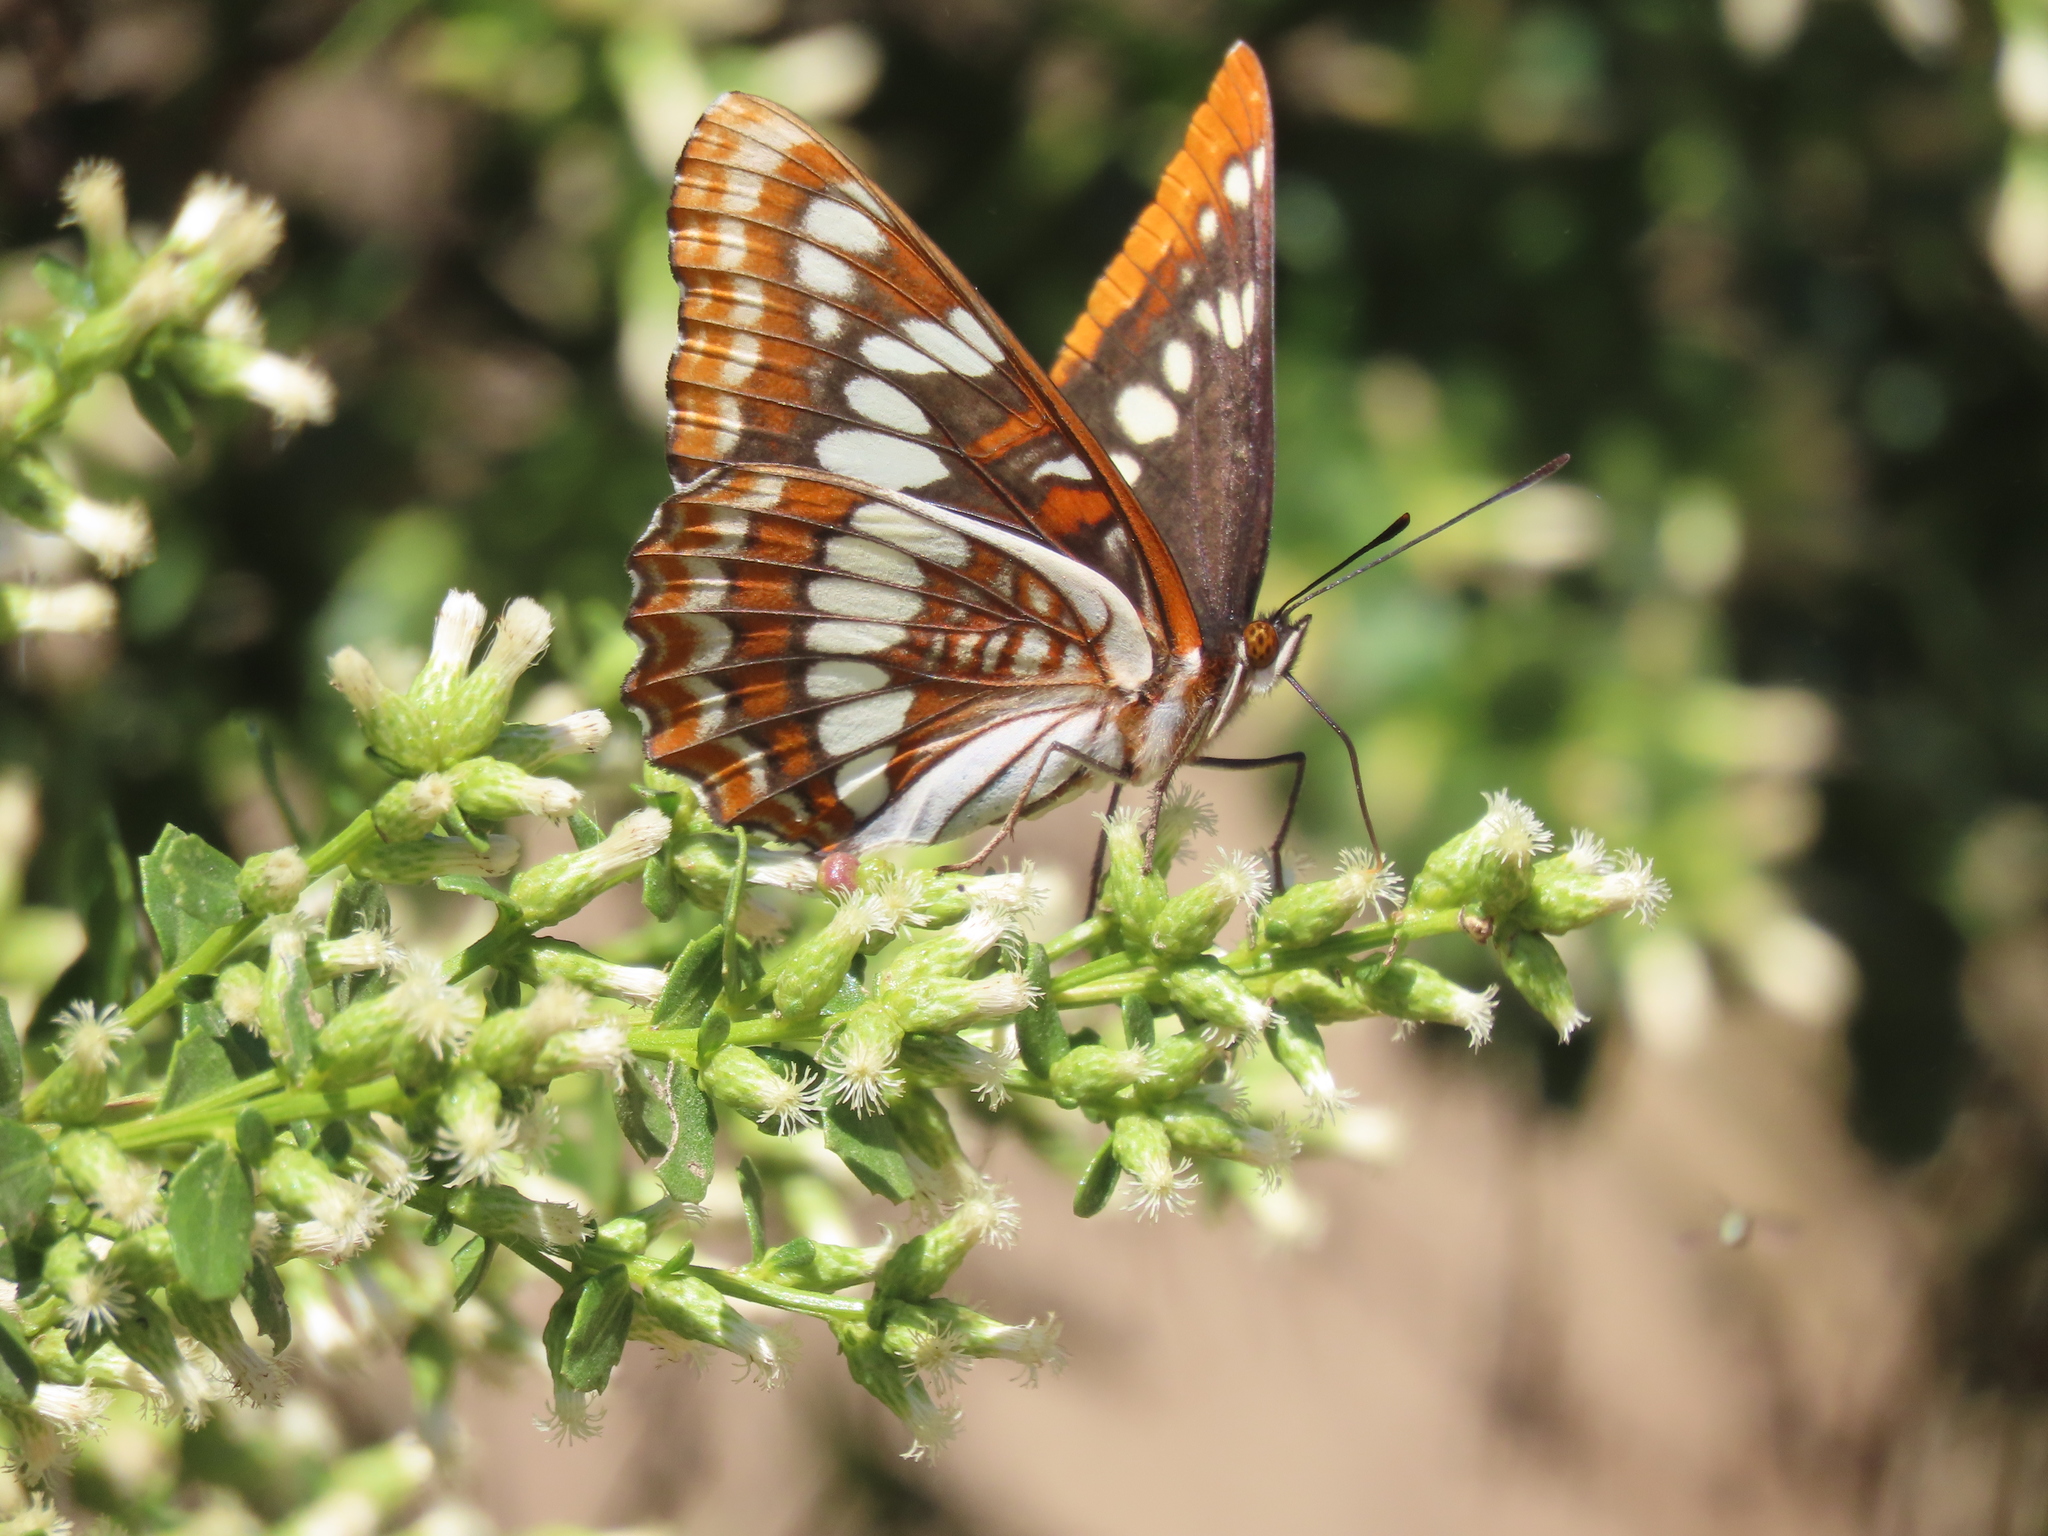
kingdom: Animalia
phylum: Arthropoda
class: Insecta
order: Lepidoptera
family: Nymphalidae
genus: Limenitis
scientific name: Limenitis lorquini
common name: Lorquin's admiral
